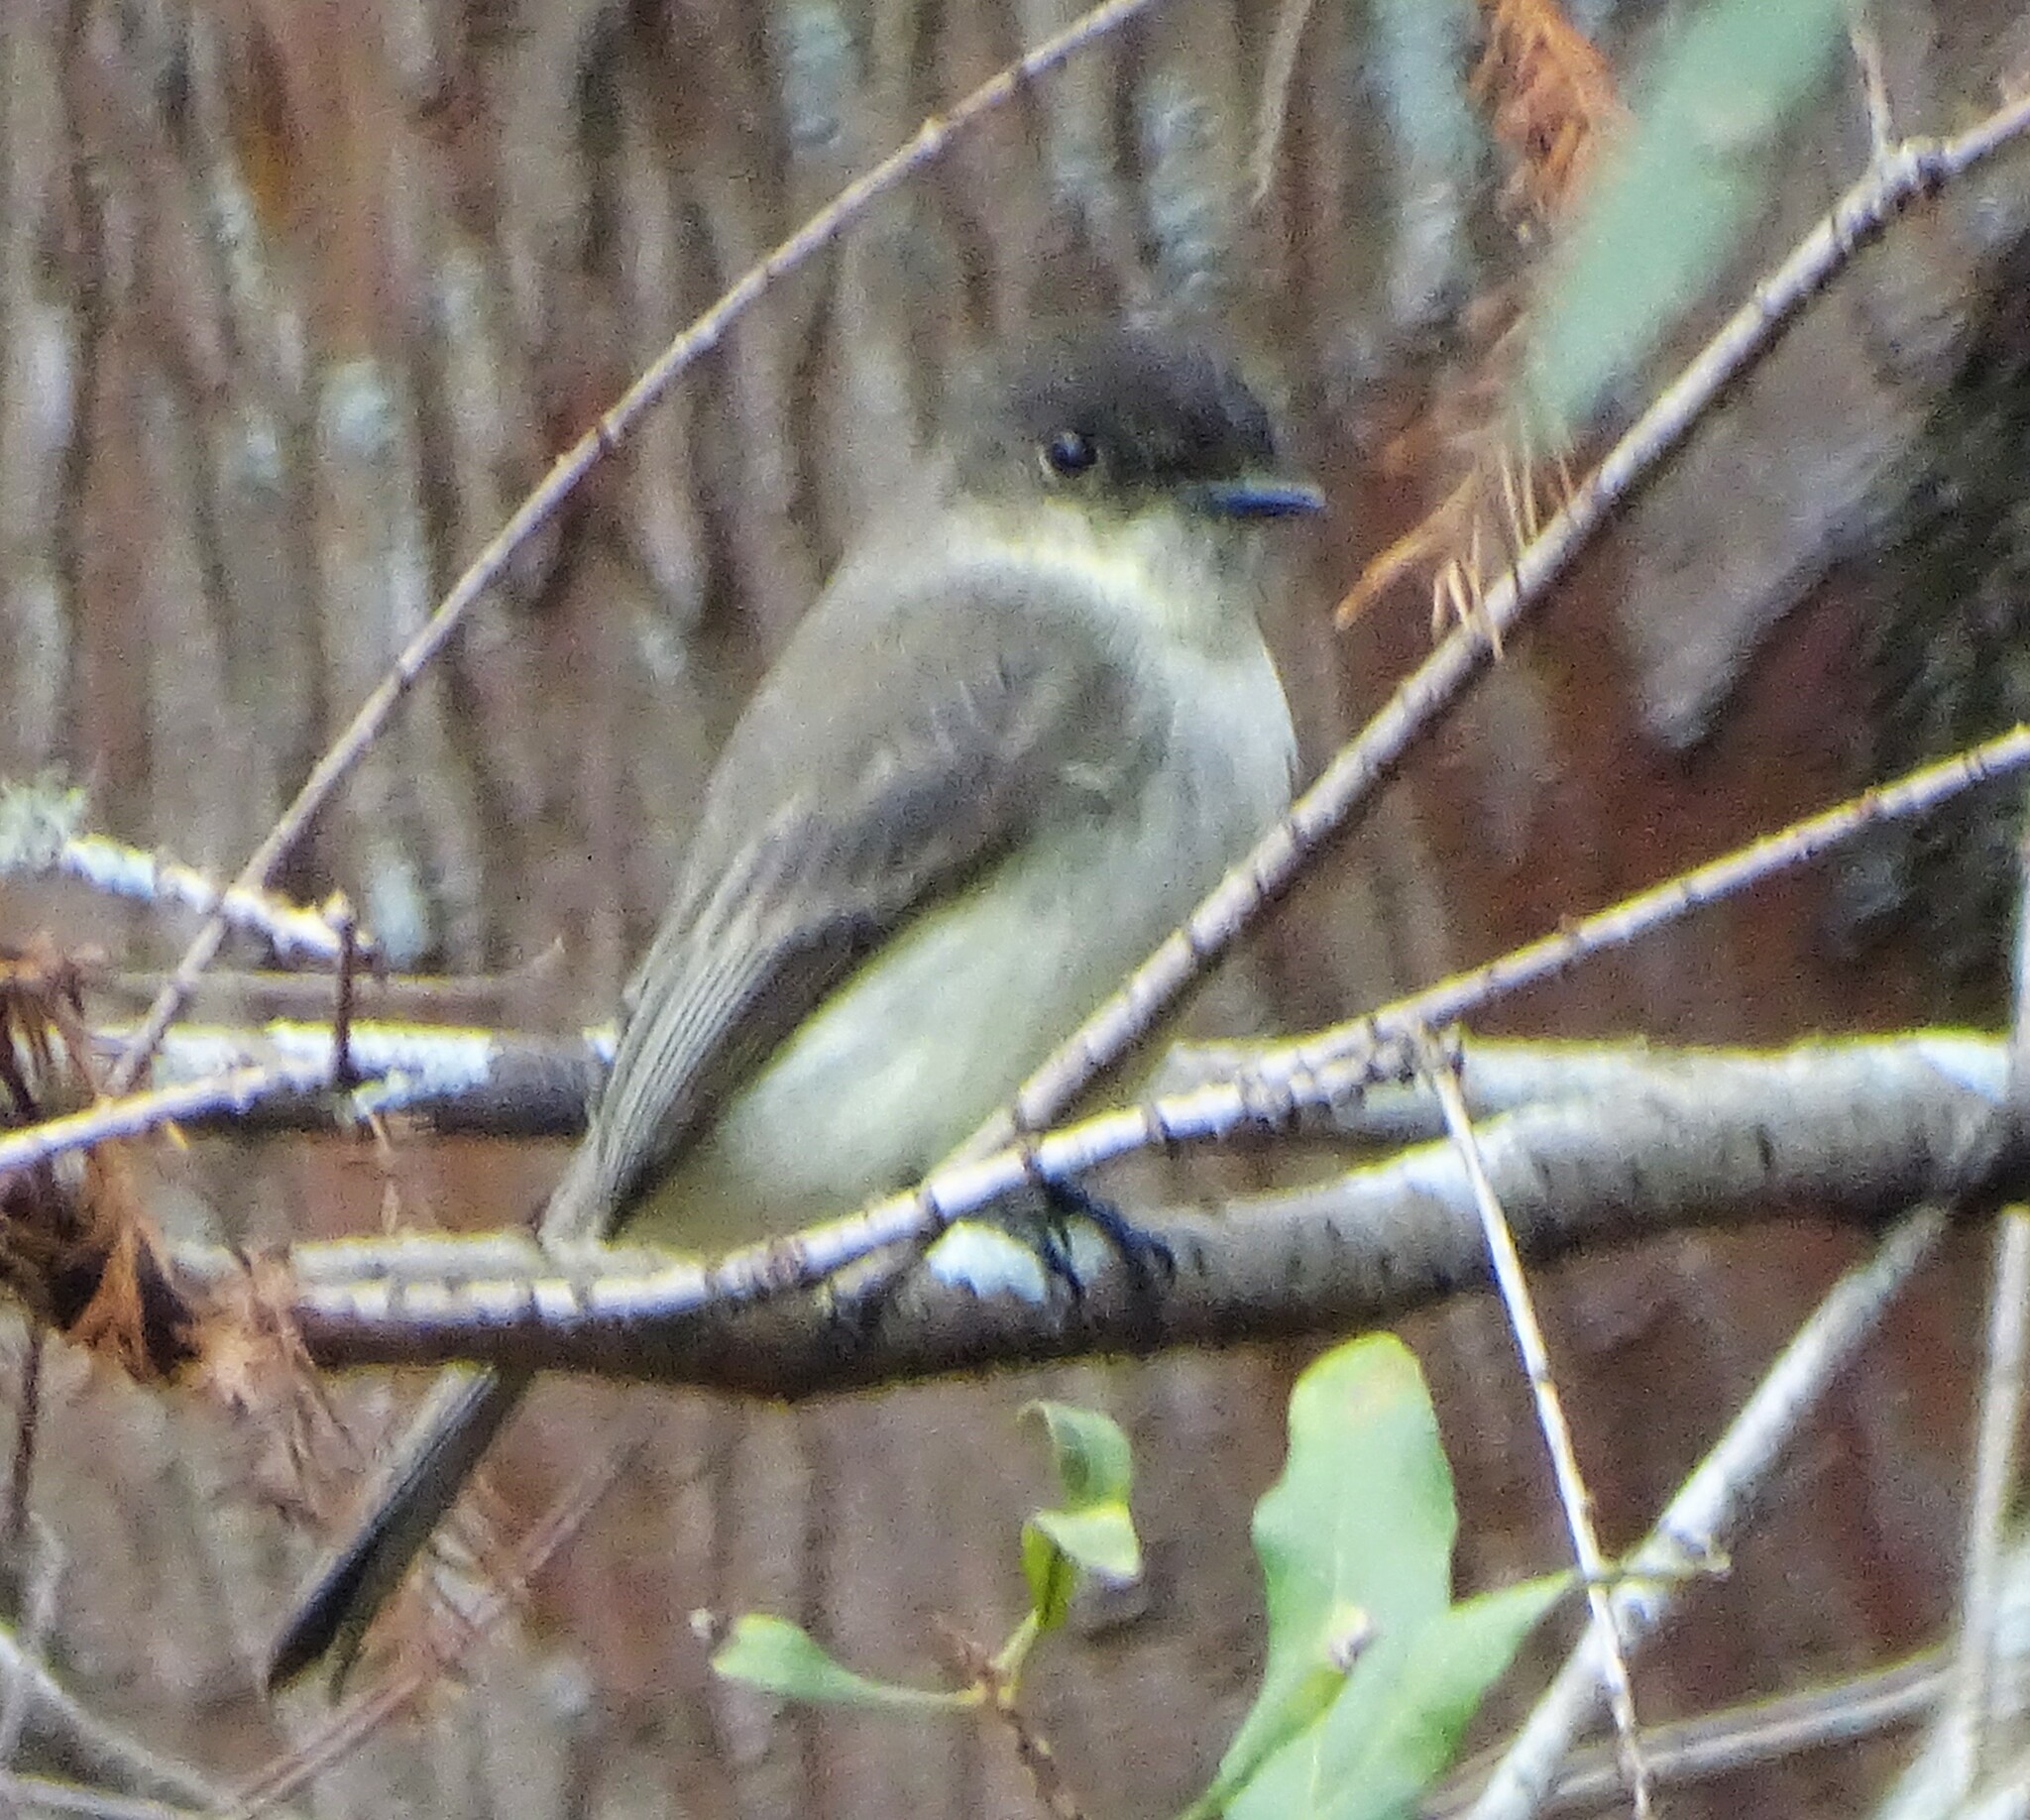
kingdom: Animalia
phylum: Chordata
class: Aves
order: Passeriformes
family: Tyrannidae
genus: Sayornis
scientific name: Sayornis phoebe
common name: Eastern phoebe
